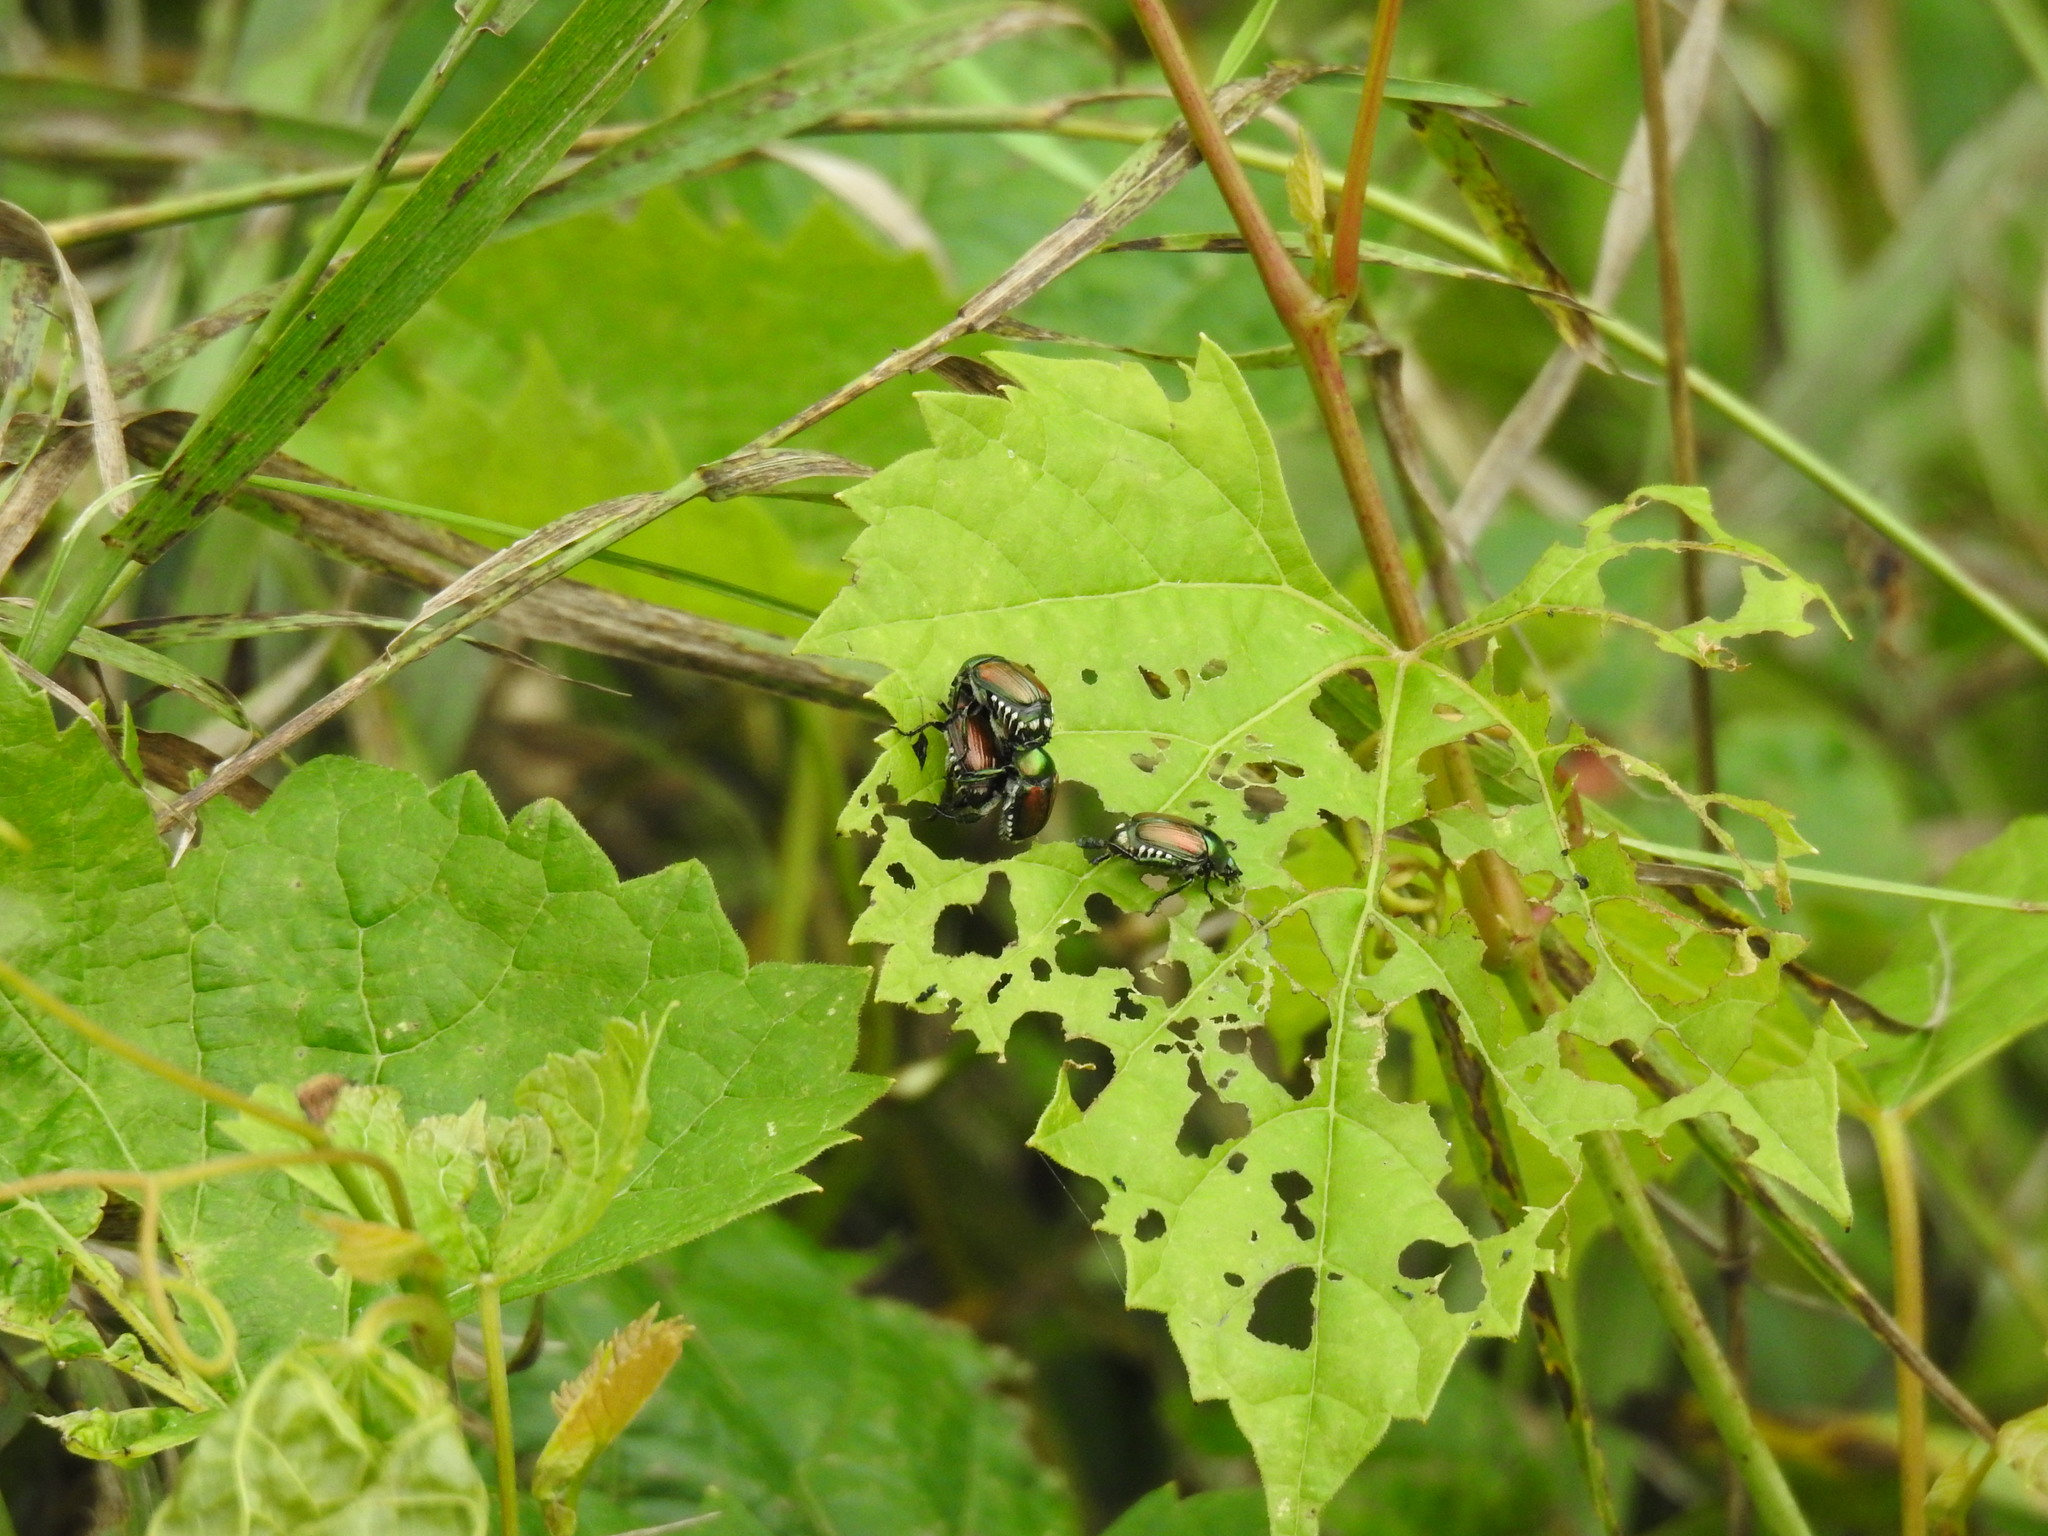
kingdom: Animalia
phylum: Arthropoda
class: Insecta
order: Coleoptera
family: Scarabaeidae
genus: Popillia
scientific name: Popillia japonica
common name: Japanese beetle
